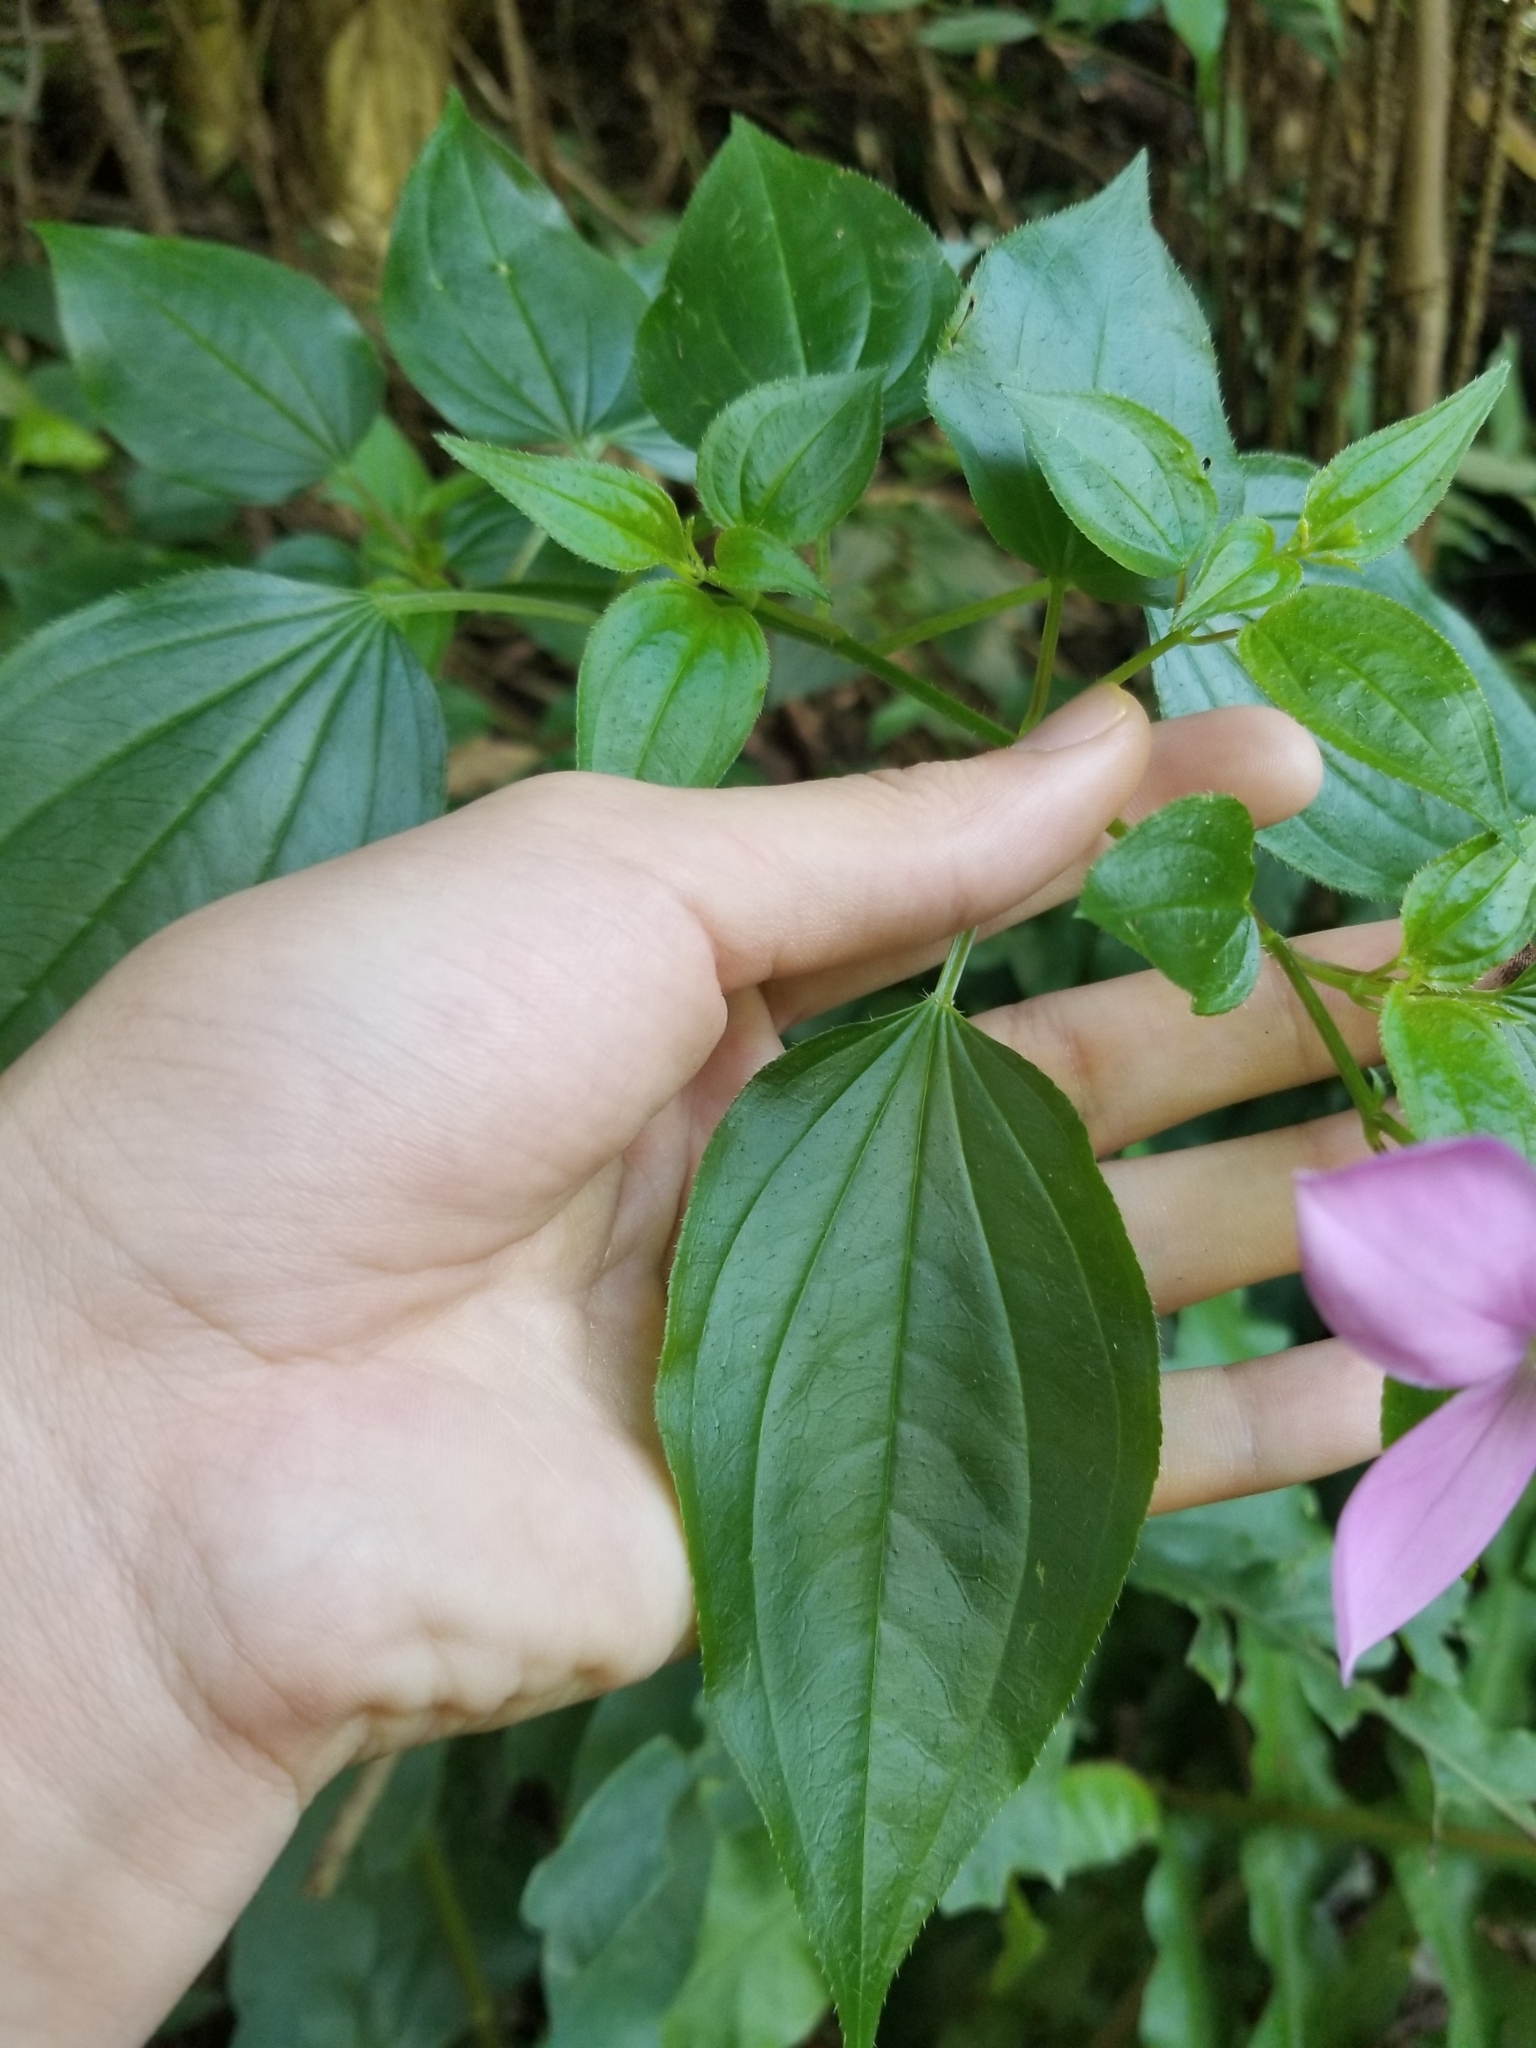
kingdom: Plantae
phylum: Tracheophyta
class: Magnoliopsida
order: Myrtales
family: Melastomataceae
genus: Arthrostemma
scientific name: Arthrostemma ciliatum
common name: Everblooming eavender
